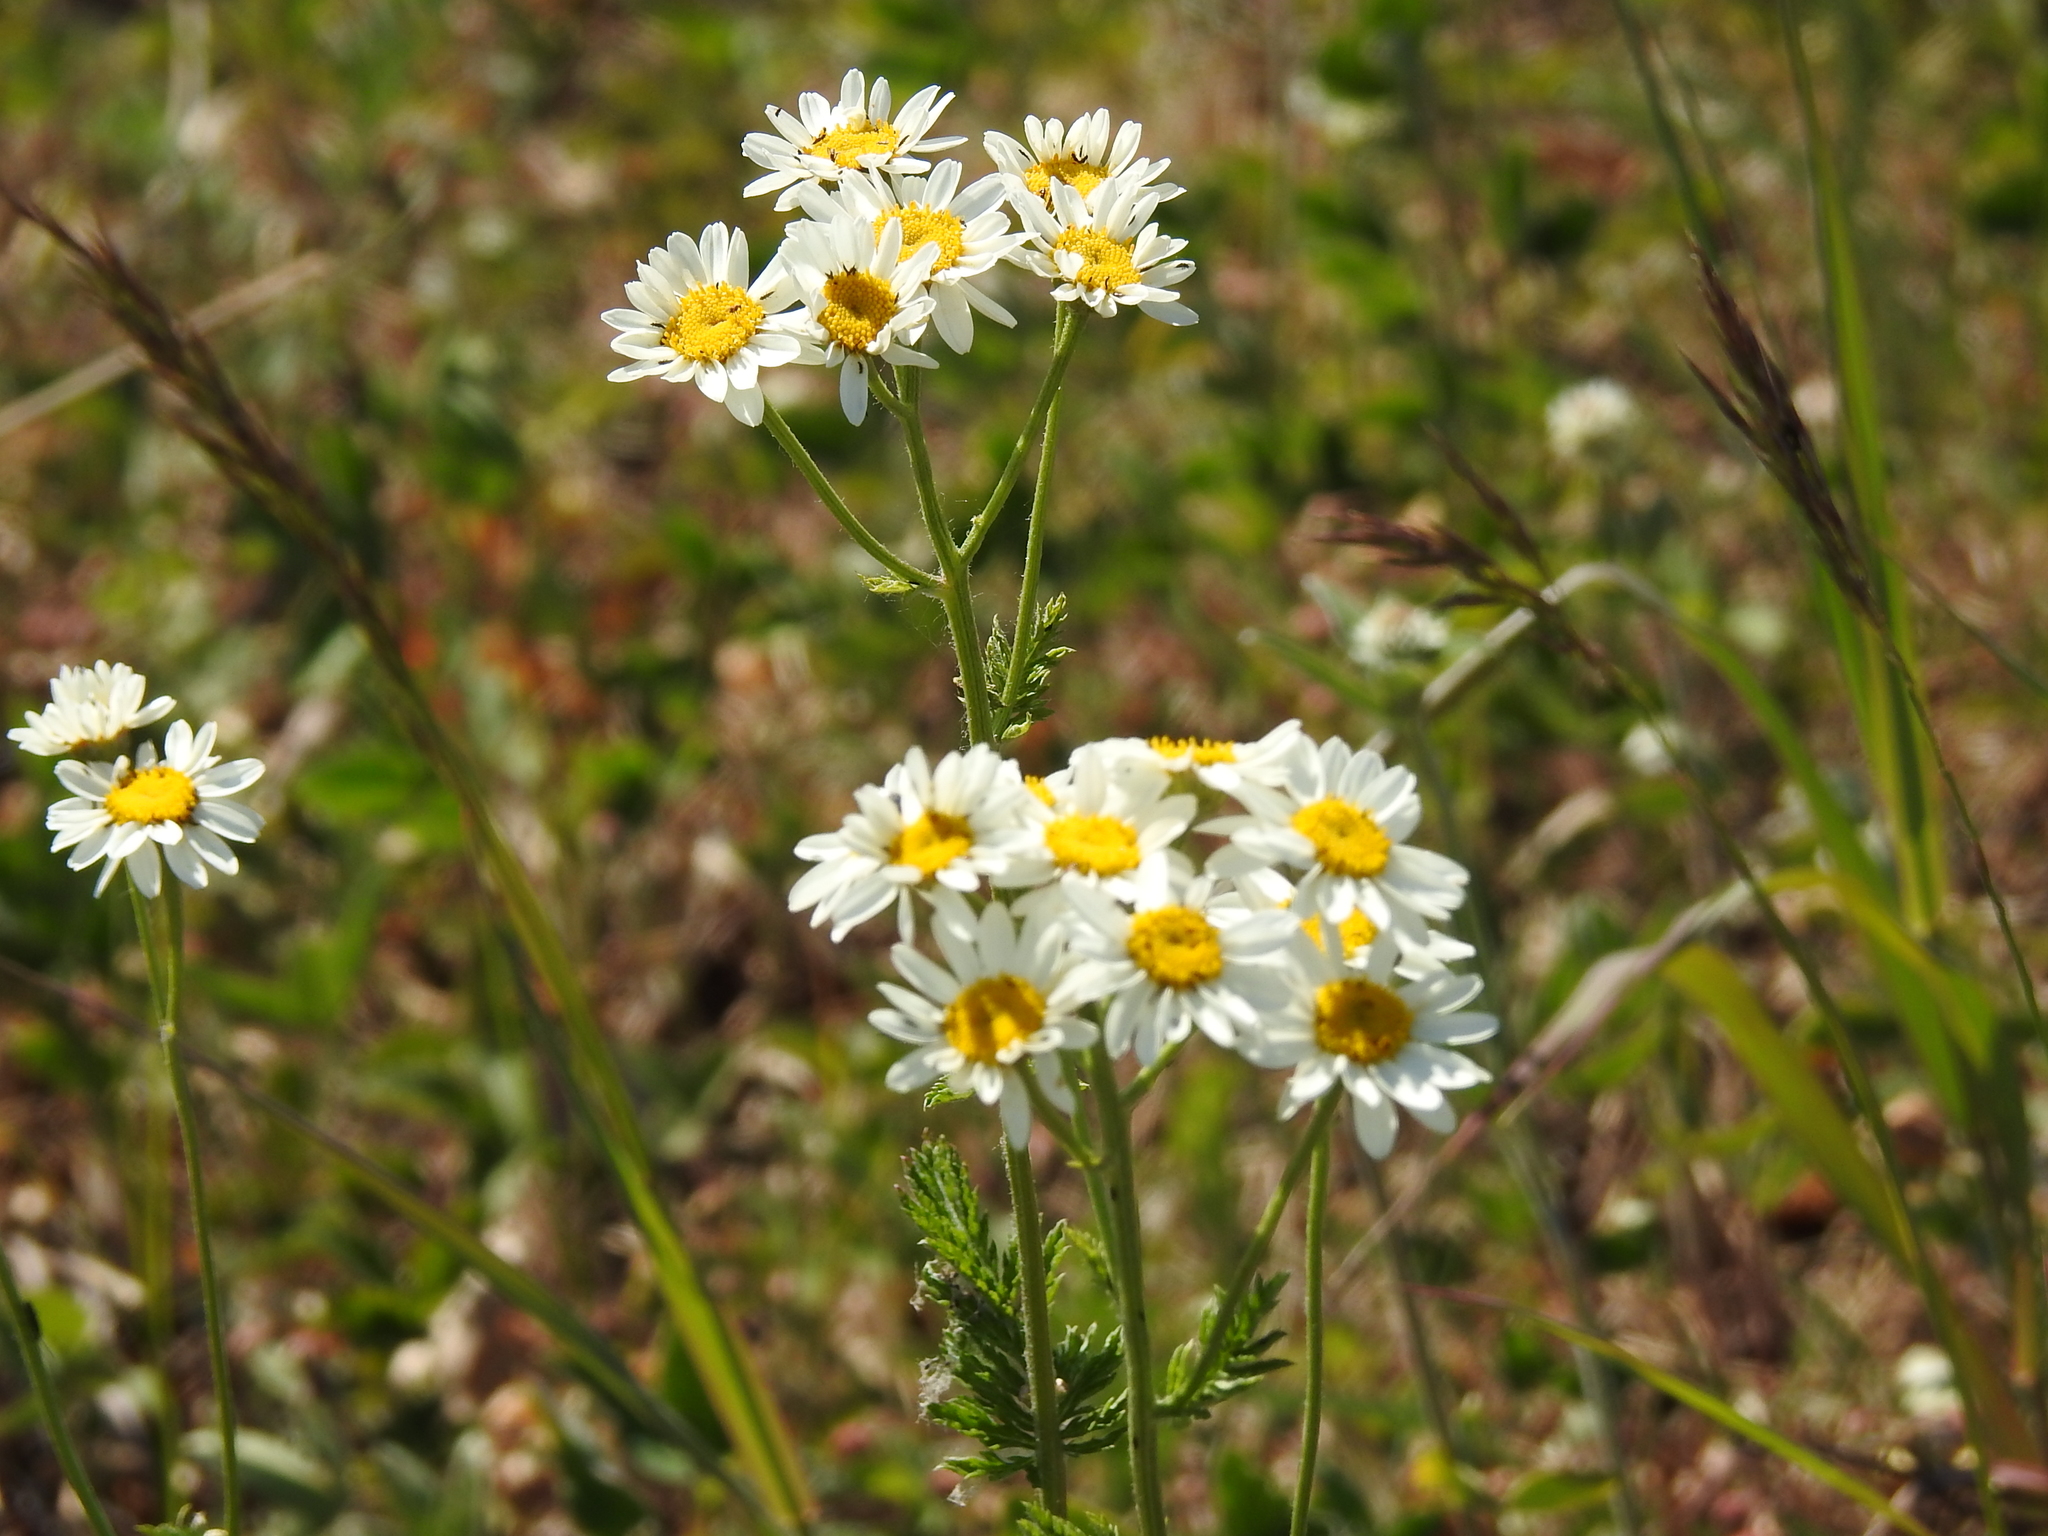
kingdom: Plantae
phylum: Tracheophyta
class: Magnoliopsida
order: Asterales
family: Asteraceae
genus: Tanacetum
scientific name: Tanacetum corymbosum
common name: Scentless feverfew
